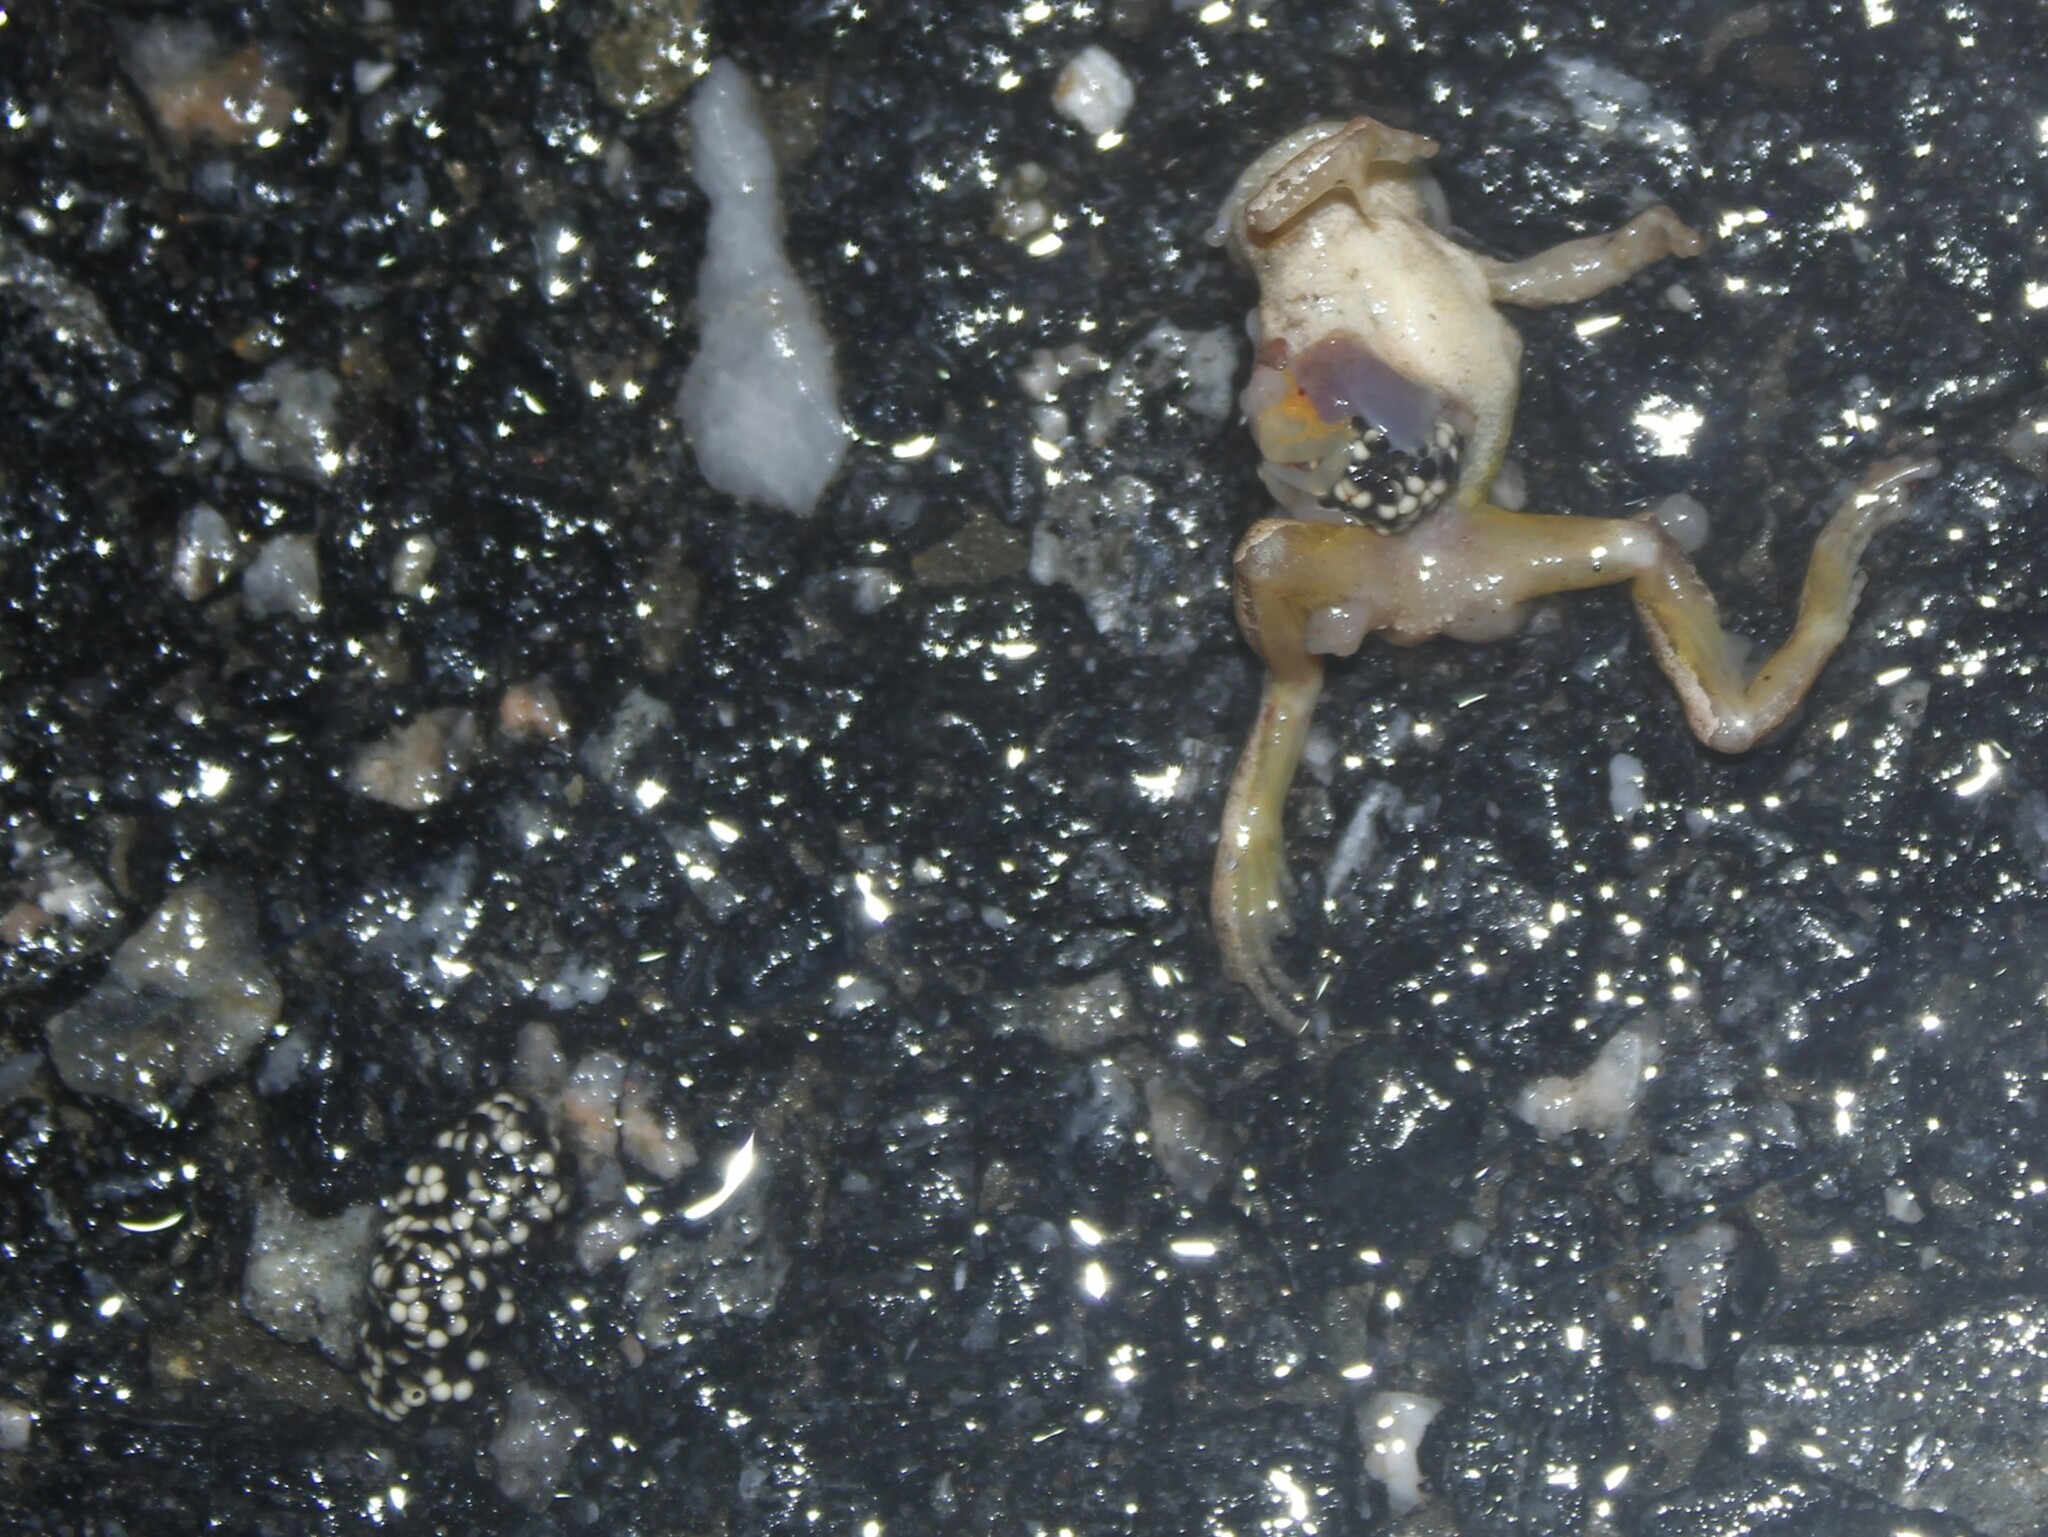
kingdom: Animalia
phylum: Chordata
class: Amphibia
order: Anura
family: Hylidae
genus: Pseudacris
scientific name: Pseudacris crucifer
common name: Spring peeper
